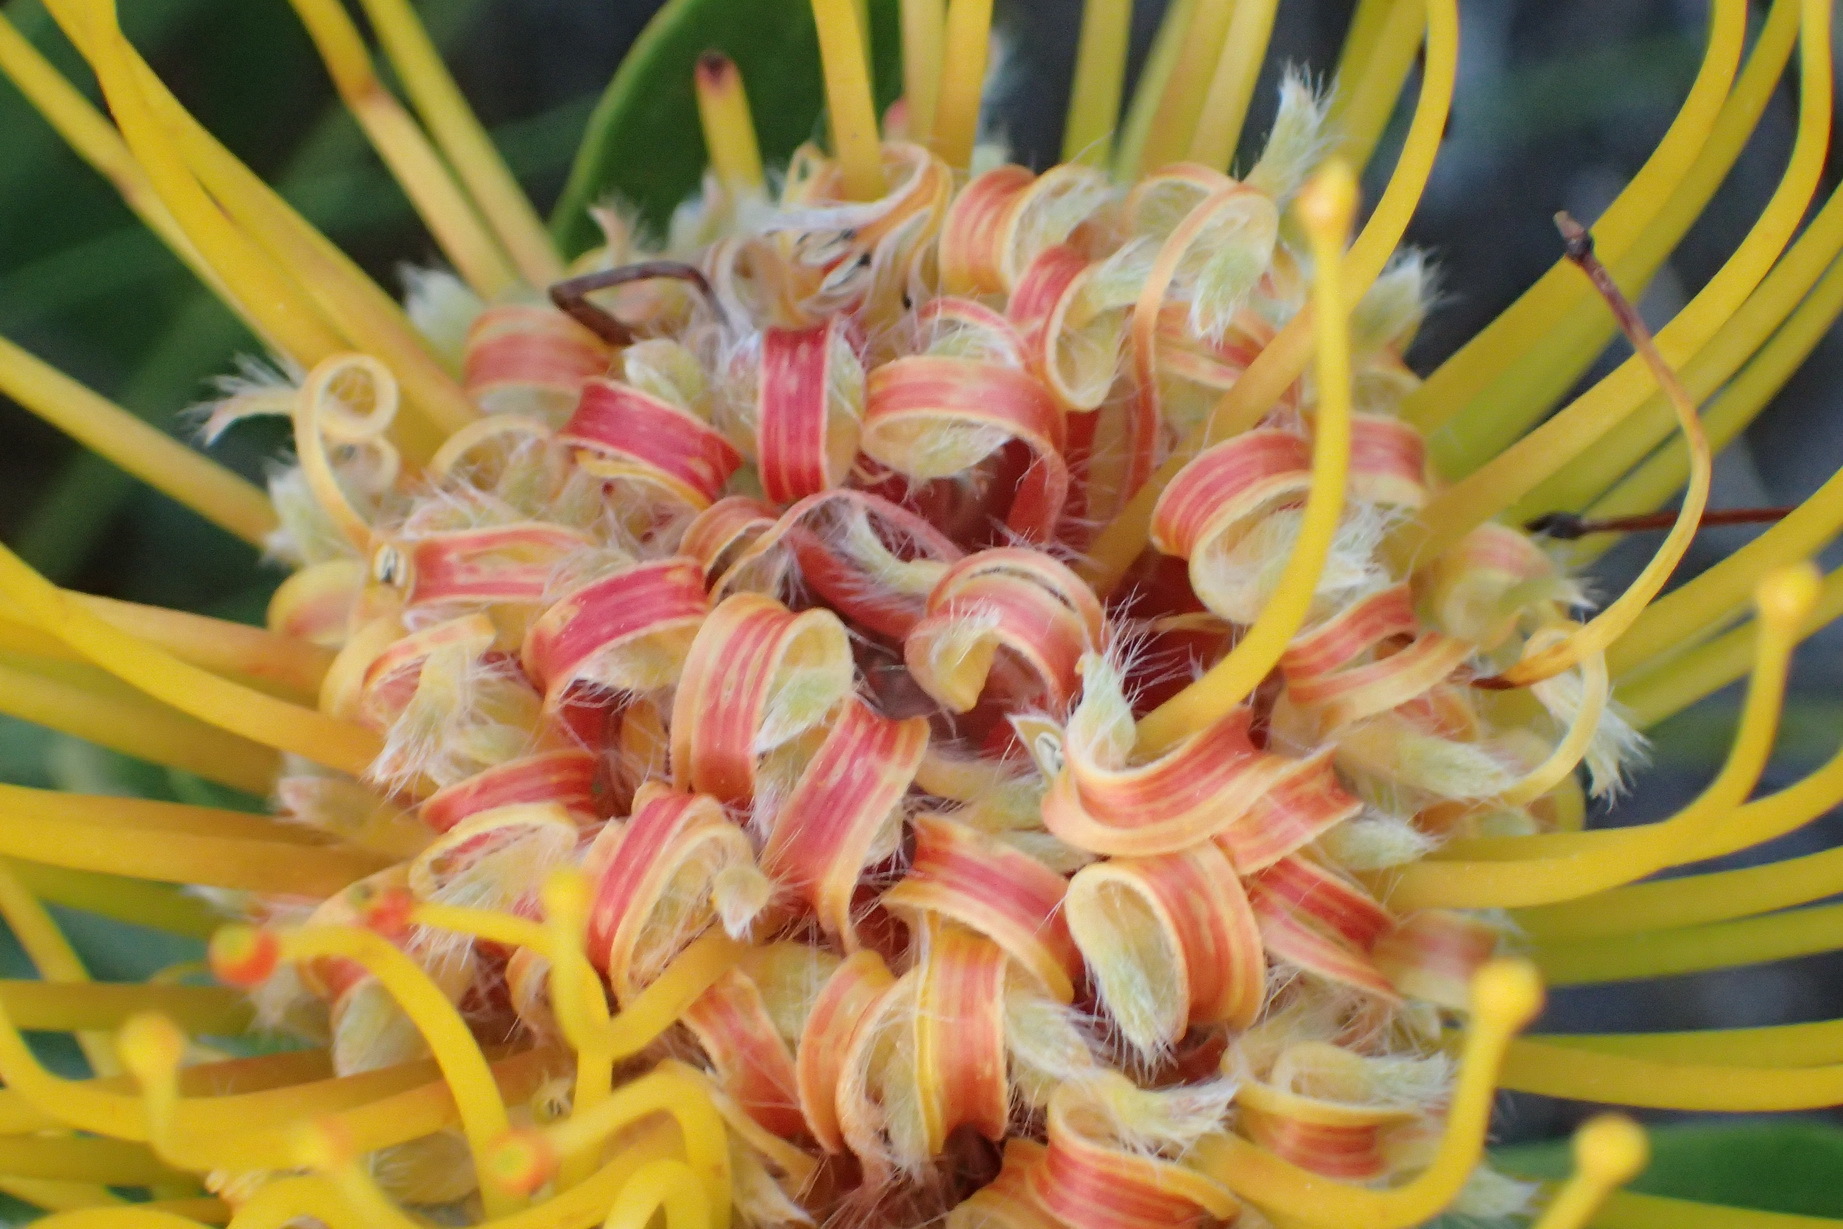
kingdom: Plantae
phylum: Tracheophyta
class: Magnoliopsida
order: Proteales
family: Proteaceae
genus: Leucospermum
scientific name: Leucospermum cuneiforme
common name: Common pincushion
